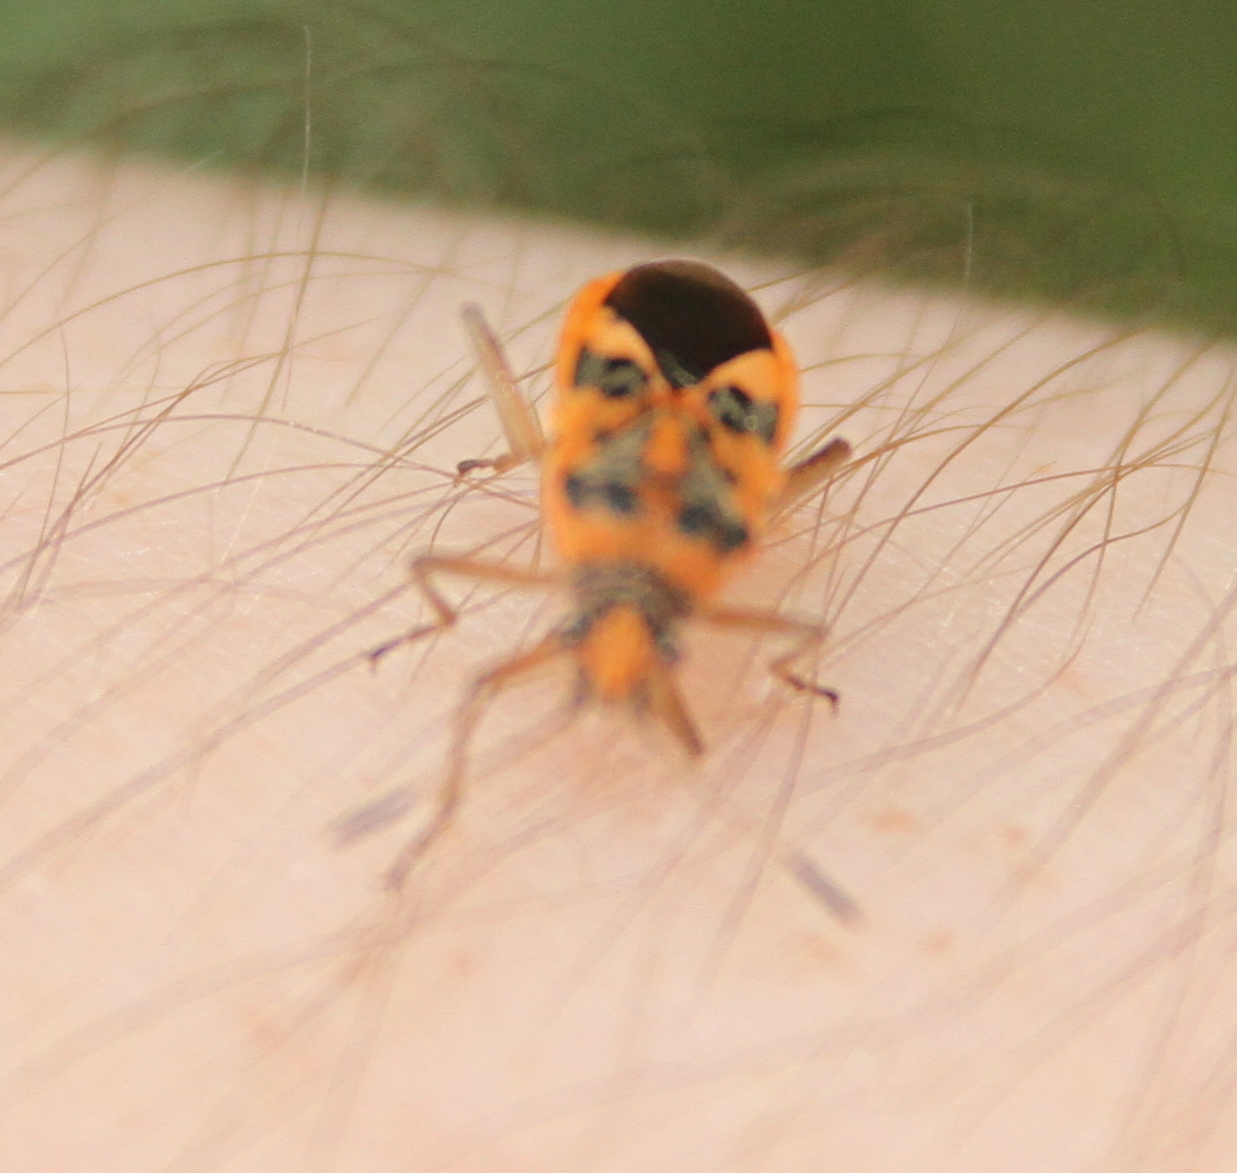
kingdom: Animalia
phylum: Arthropoda
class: Insecta
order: Hemiptera
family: Rhopalidae
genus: Corizus
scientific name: Corizus hyoscyami
